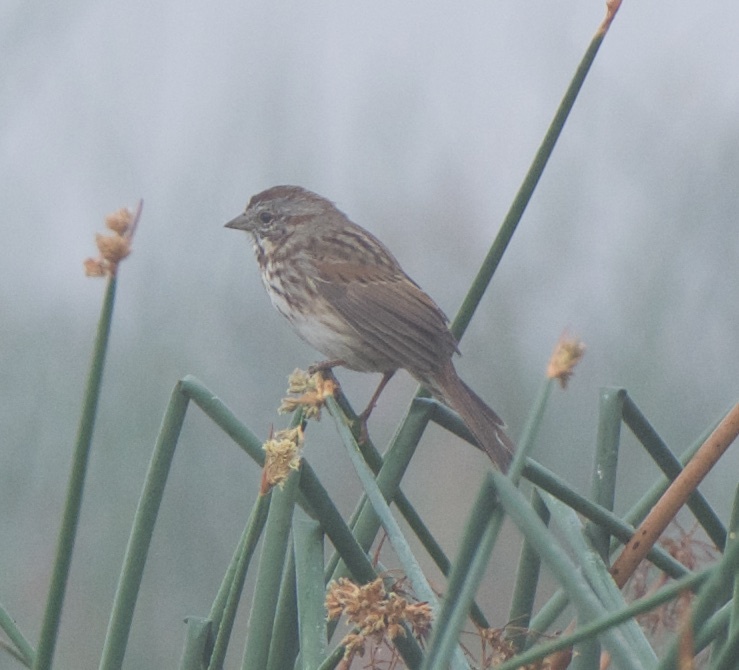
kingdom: Animalia
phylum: Chordata
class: Aves
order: Passeriformes
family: Passerellidae
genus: Melospiza
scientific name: Melospiza melodia
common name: Song sparrow
